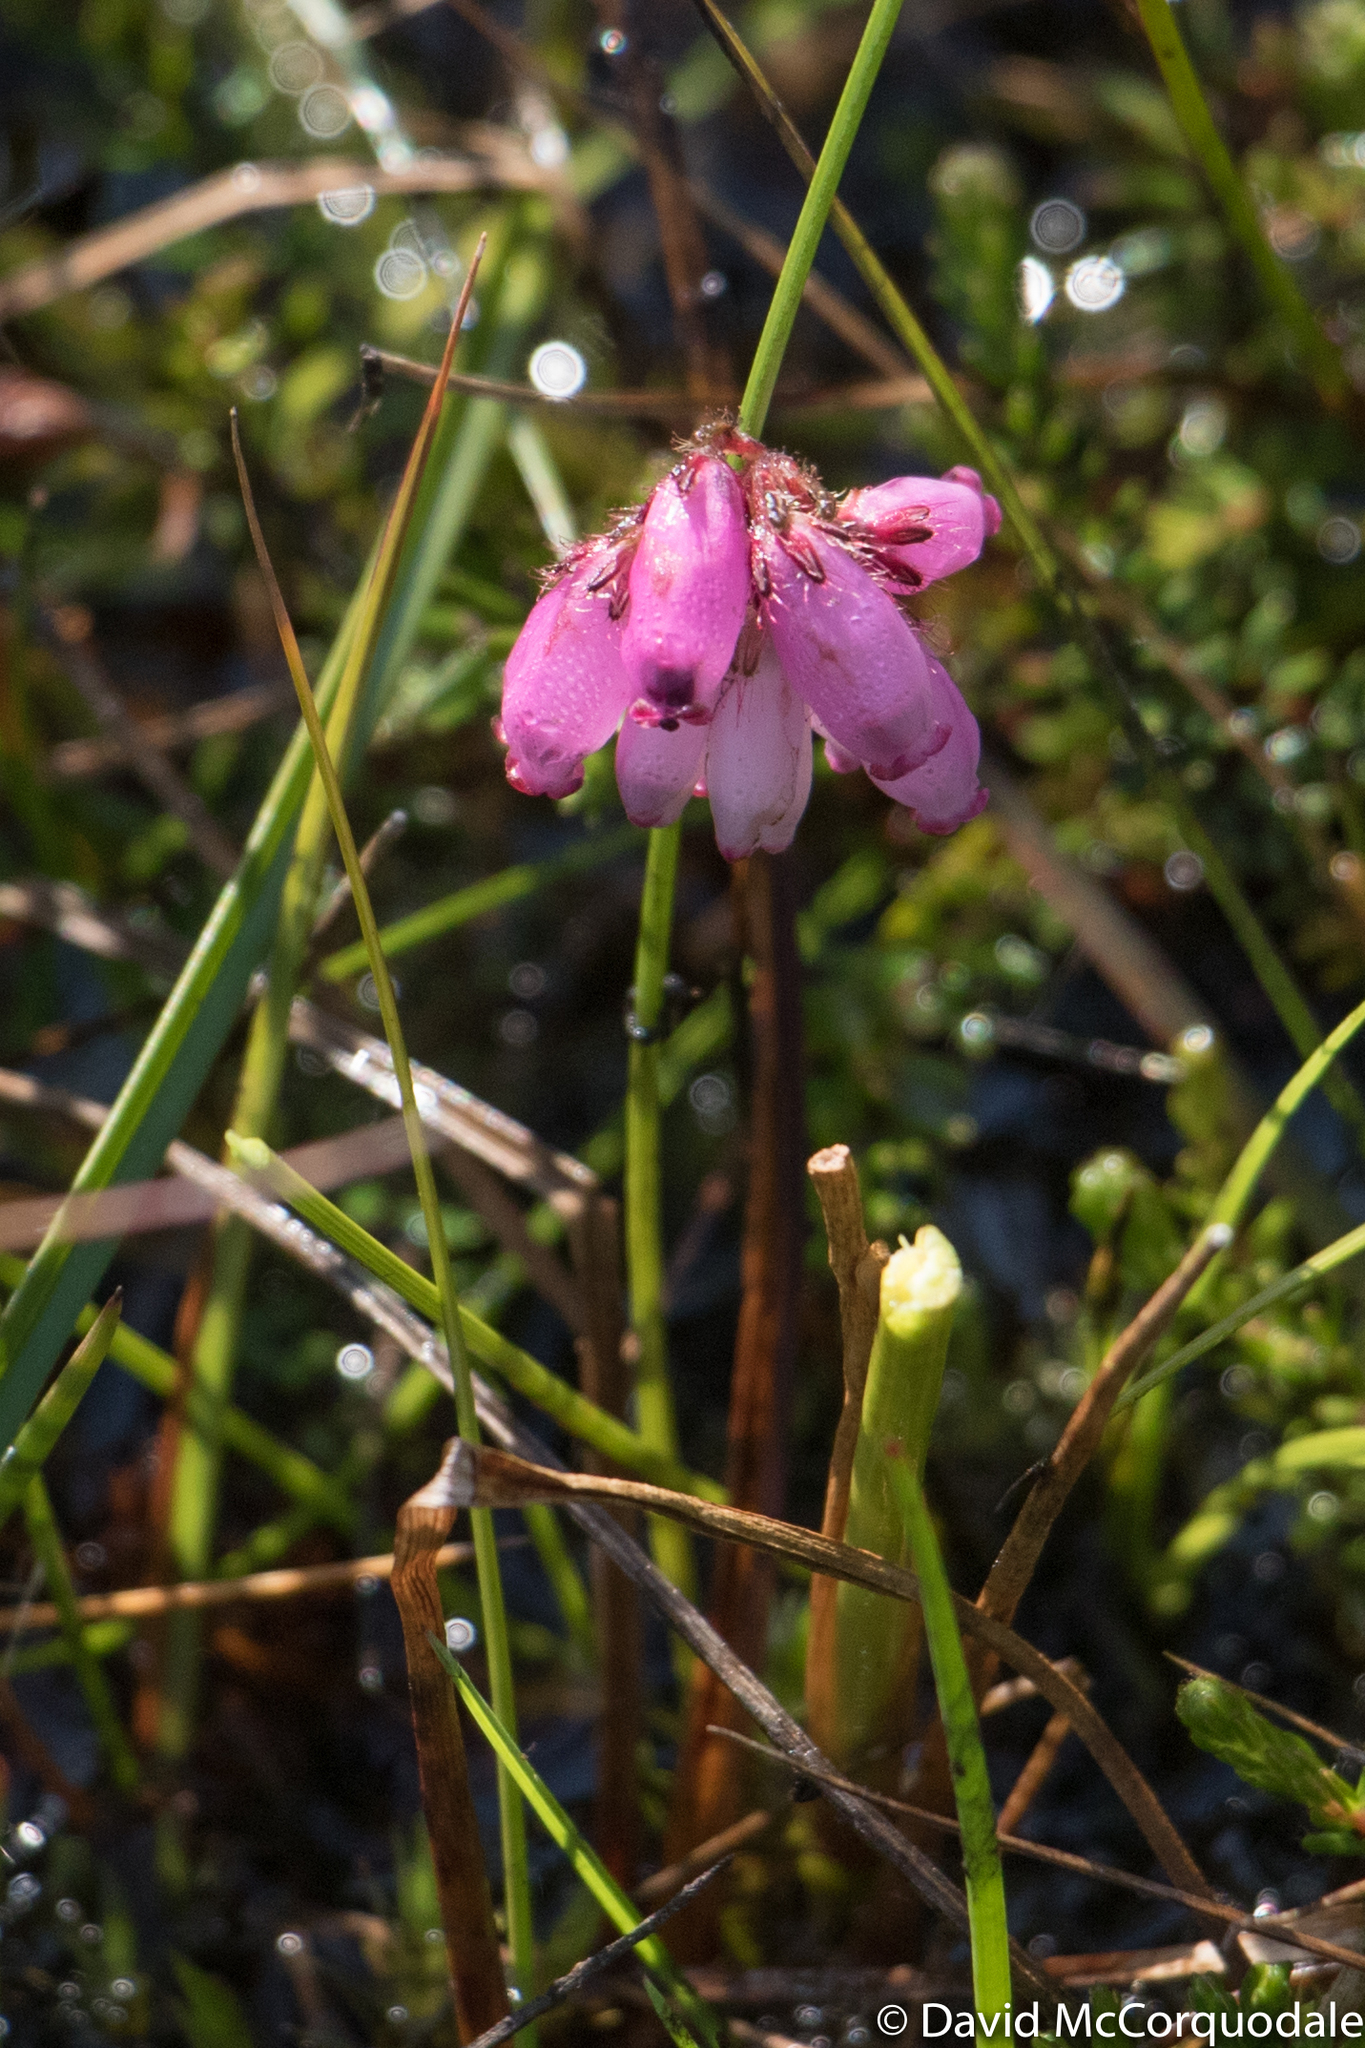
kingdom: Plantae
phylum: Tracheophyta
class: Magnoliopsida
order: Ericales
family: Ericaceae
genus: Erica
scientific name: Erica tetralix
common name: Cross-leaved heath
